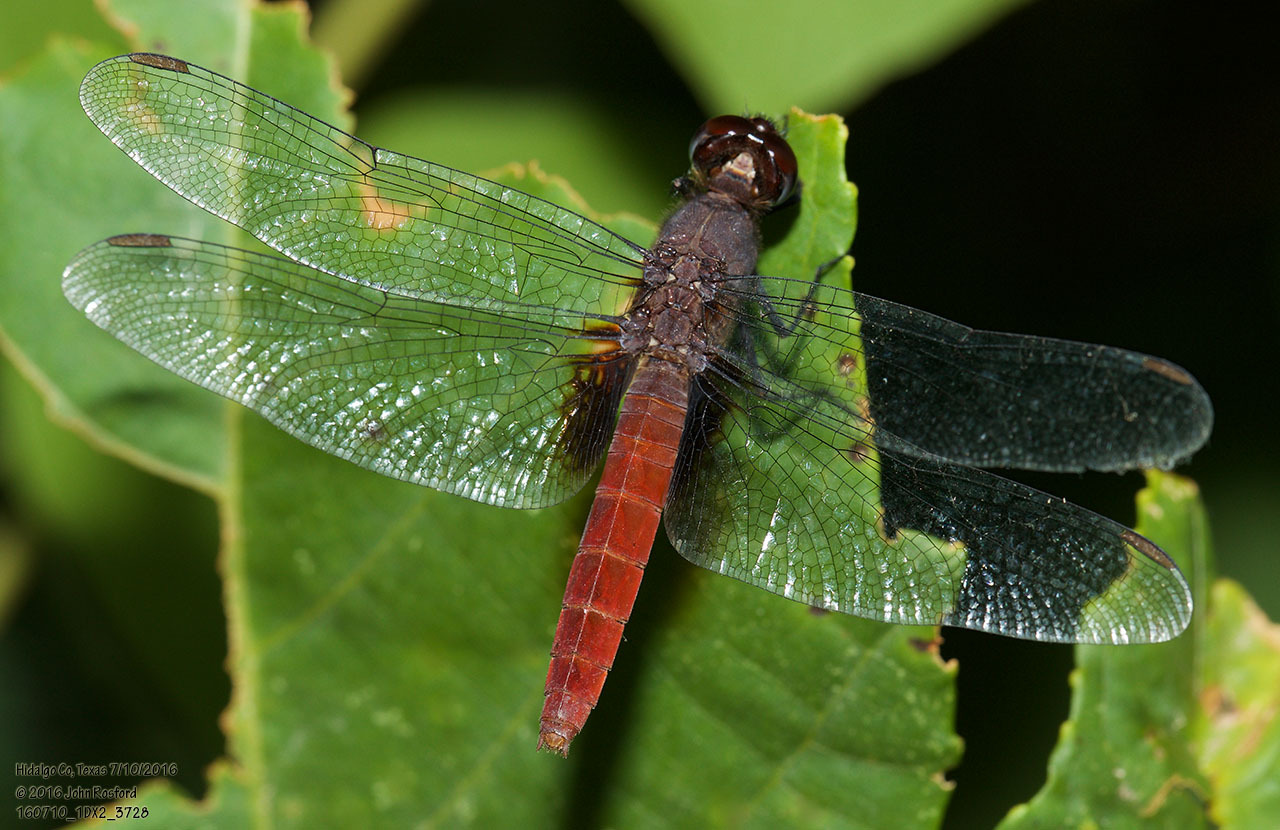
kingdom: Animalia
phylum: Arthropoda
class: Insecta
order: Odonata
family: Libellulidae
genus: Planiplax
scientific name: Planiplax sanguiniventris
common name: Mexican scarlet-tail
